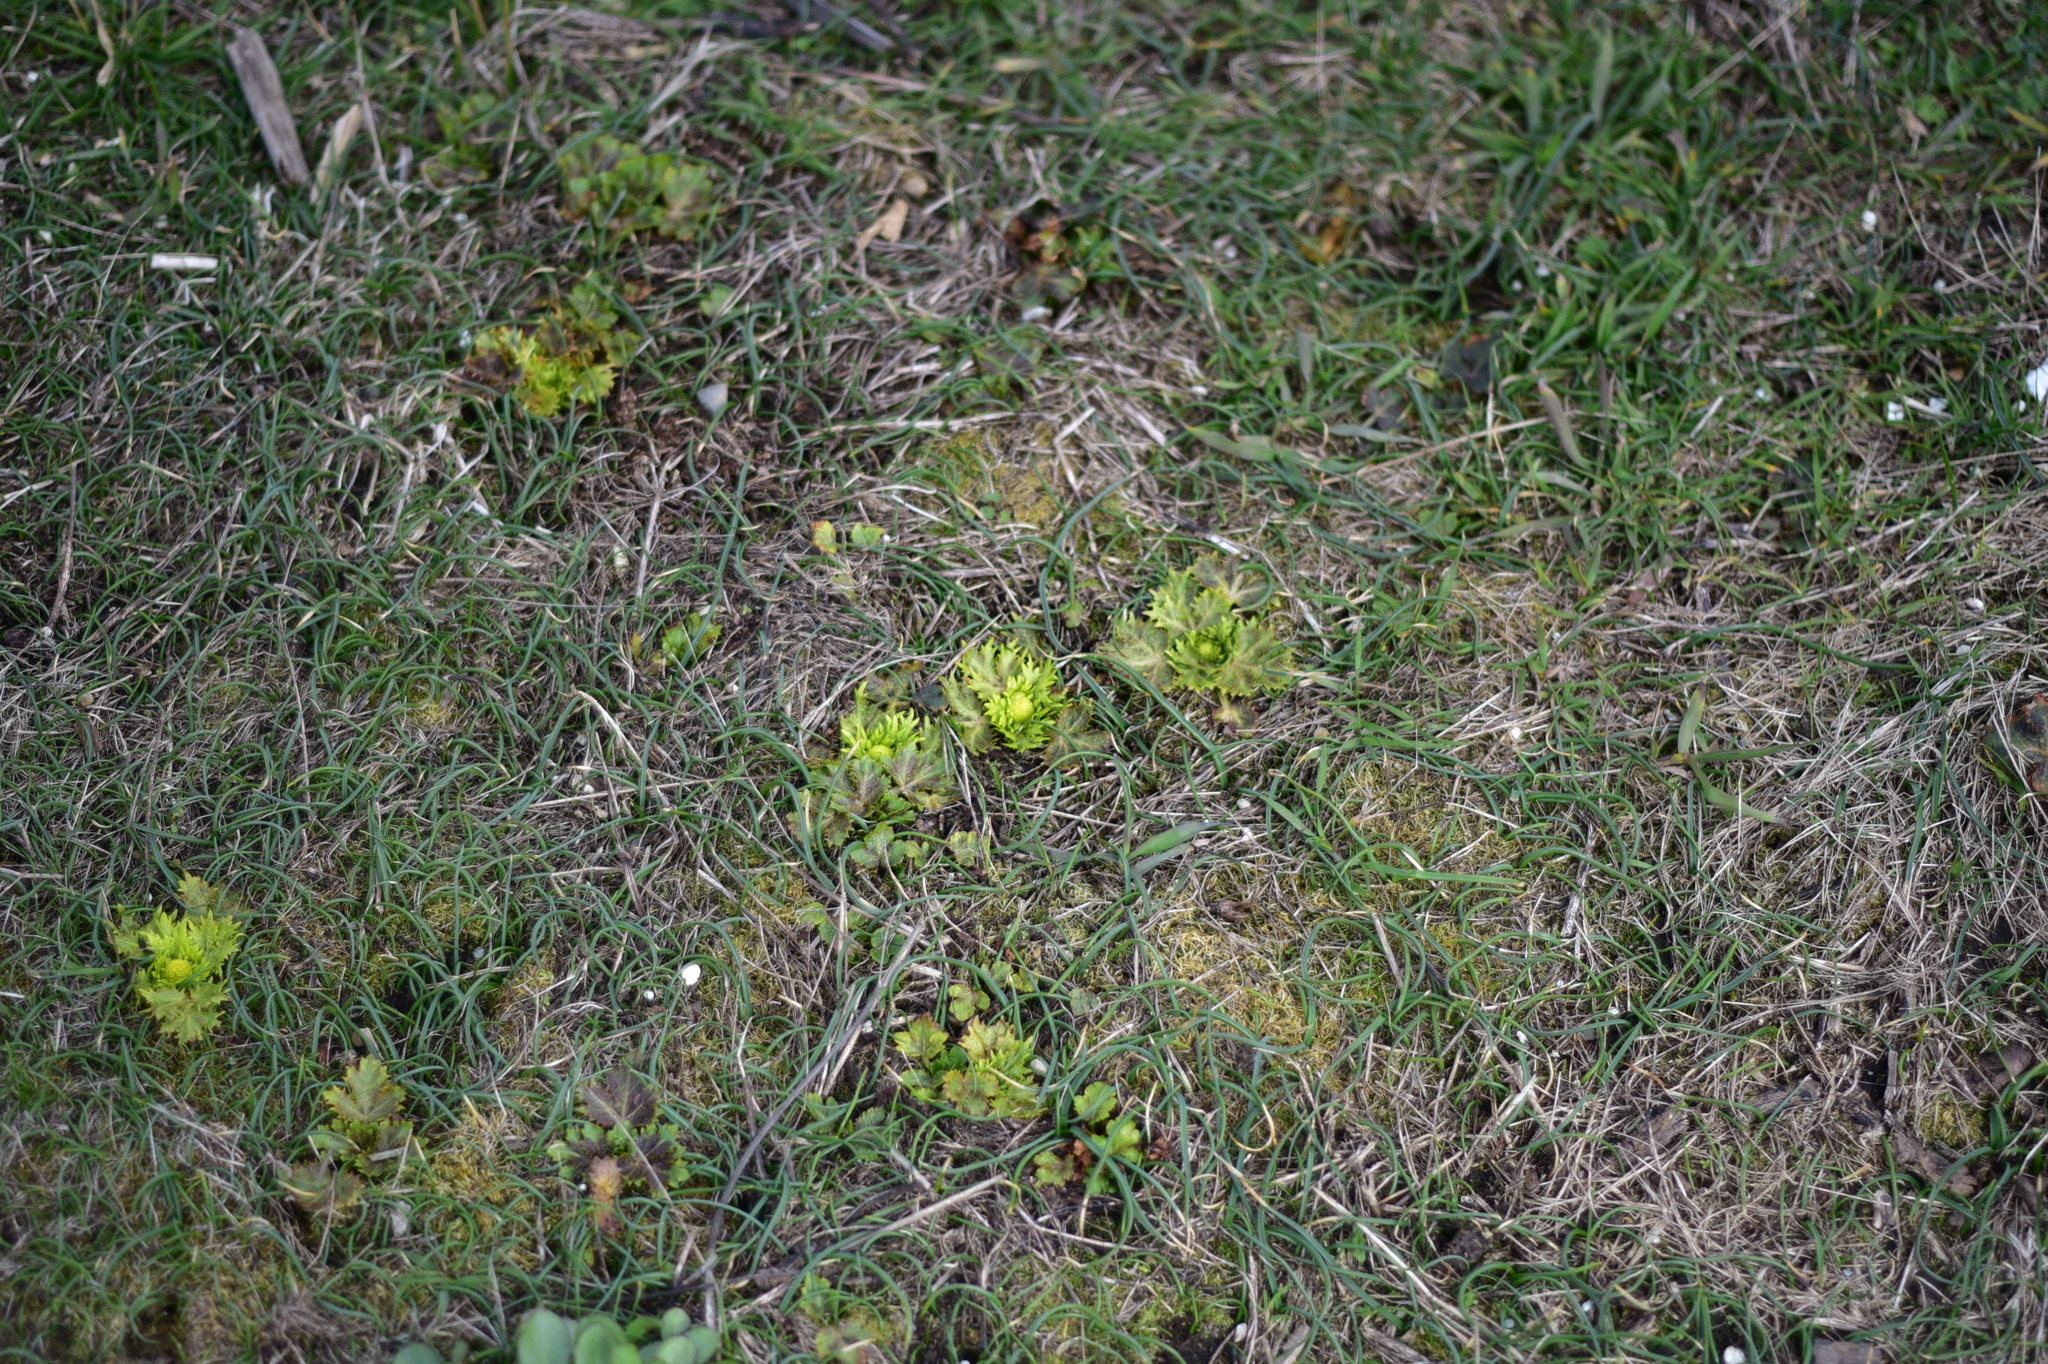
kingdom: Plantae
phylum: Tracheophyta
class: Magnoliopsida
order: Apiales
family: Apiaceae
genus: Sanicula
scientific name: Sanicula arctopoides
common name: Footsteps-of-spring
